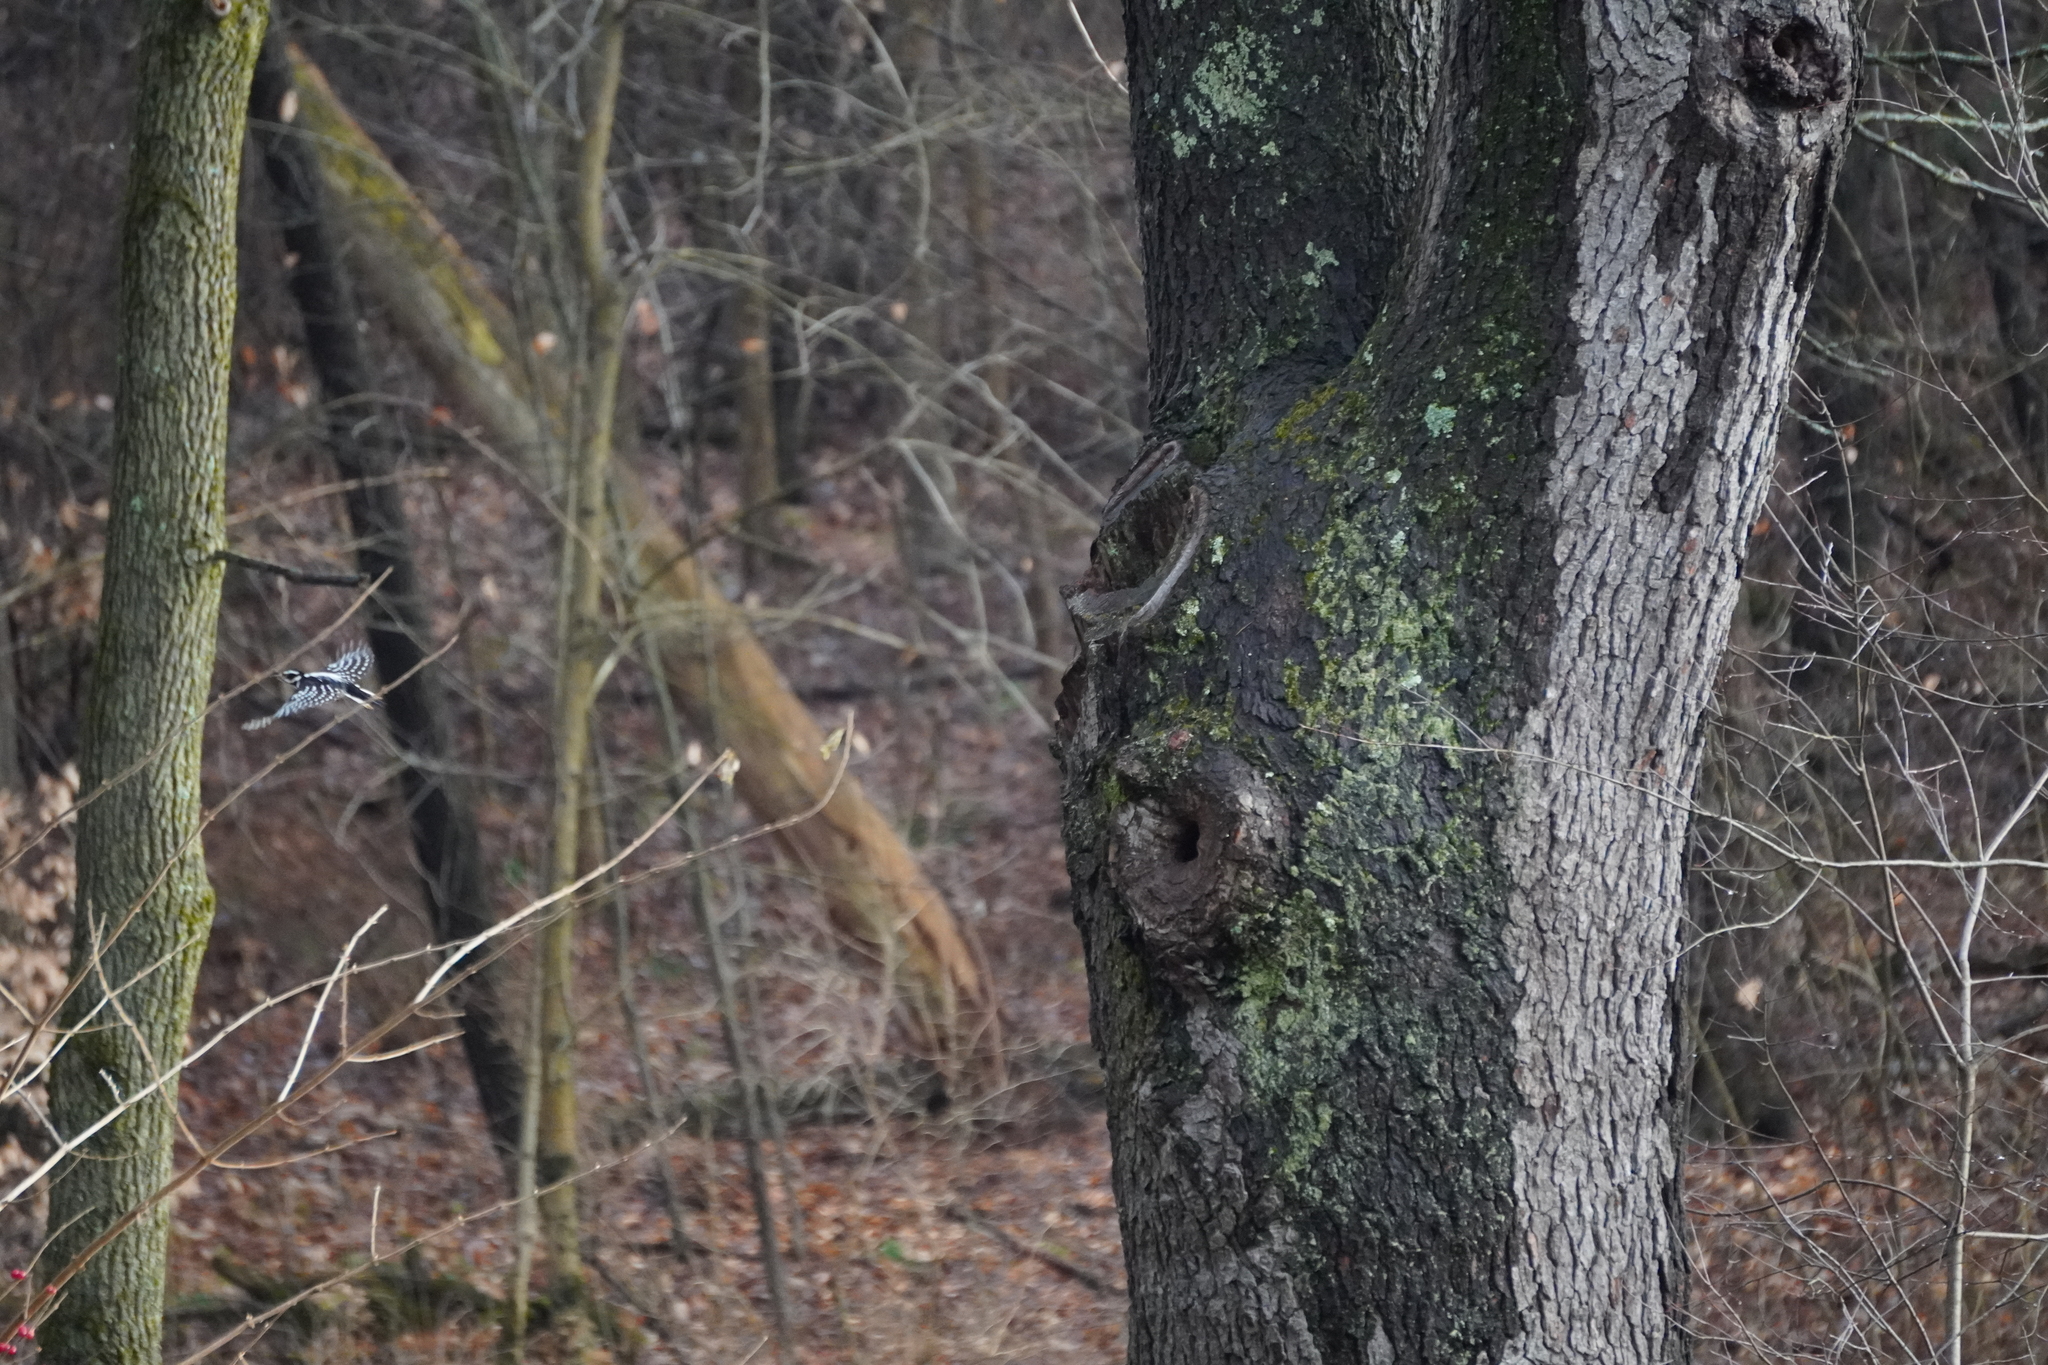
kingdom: Animalia
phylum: Chordata
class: Aves
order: Piciformes
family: Picidae
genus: Dryobates
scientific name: Dryobates pubescens
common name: Downy woodpecker
